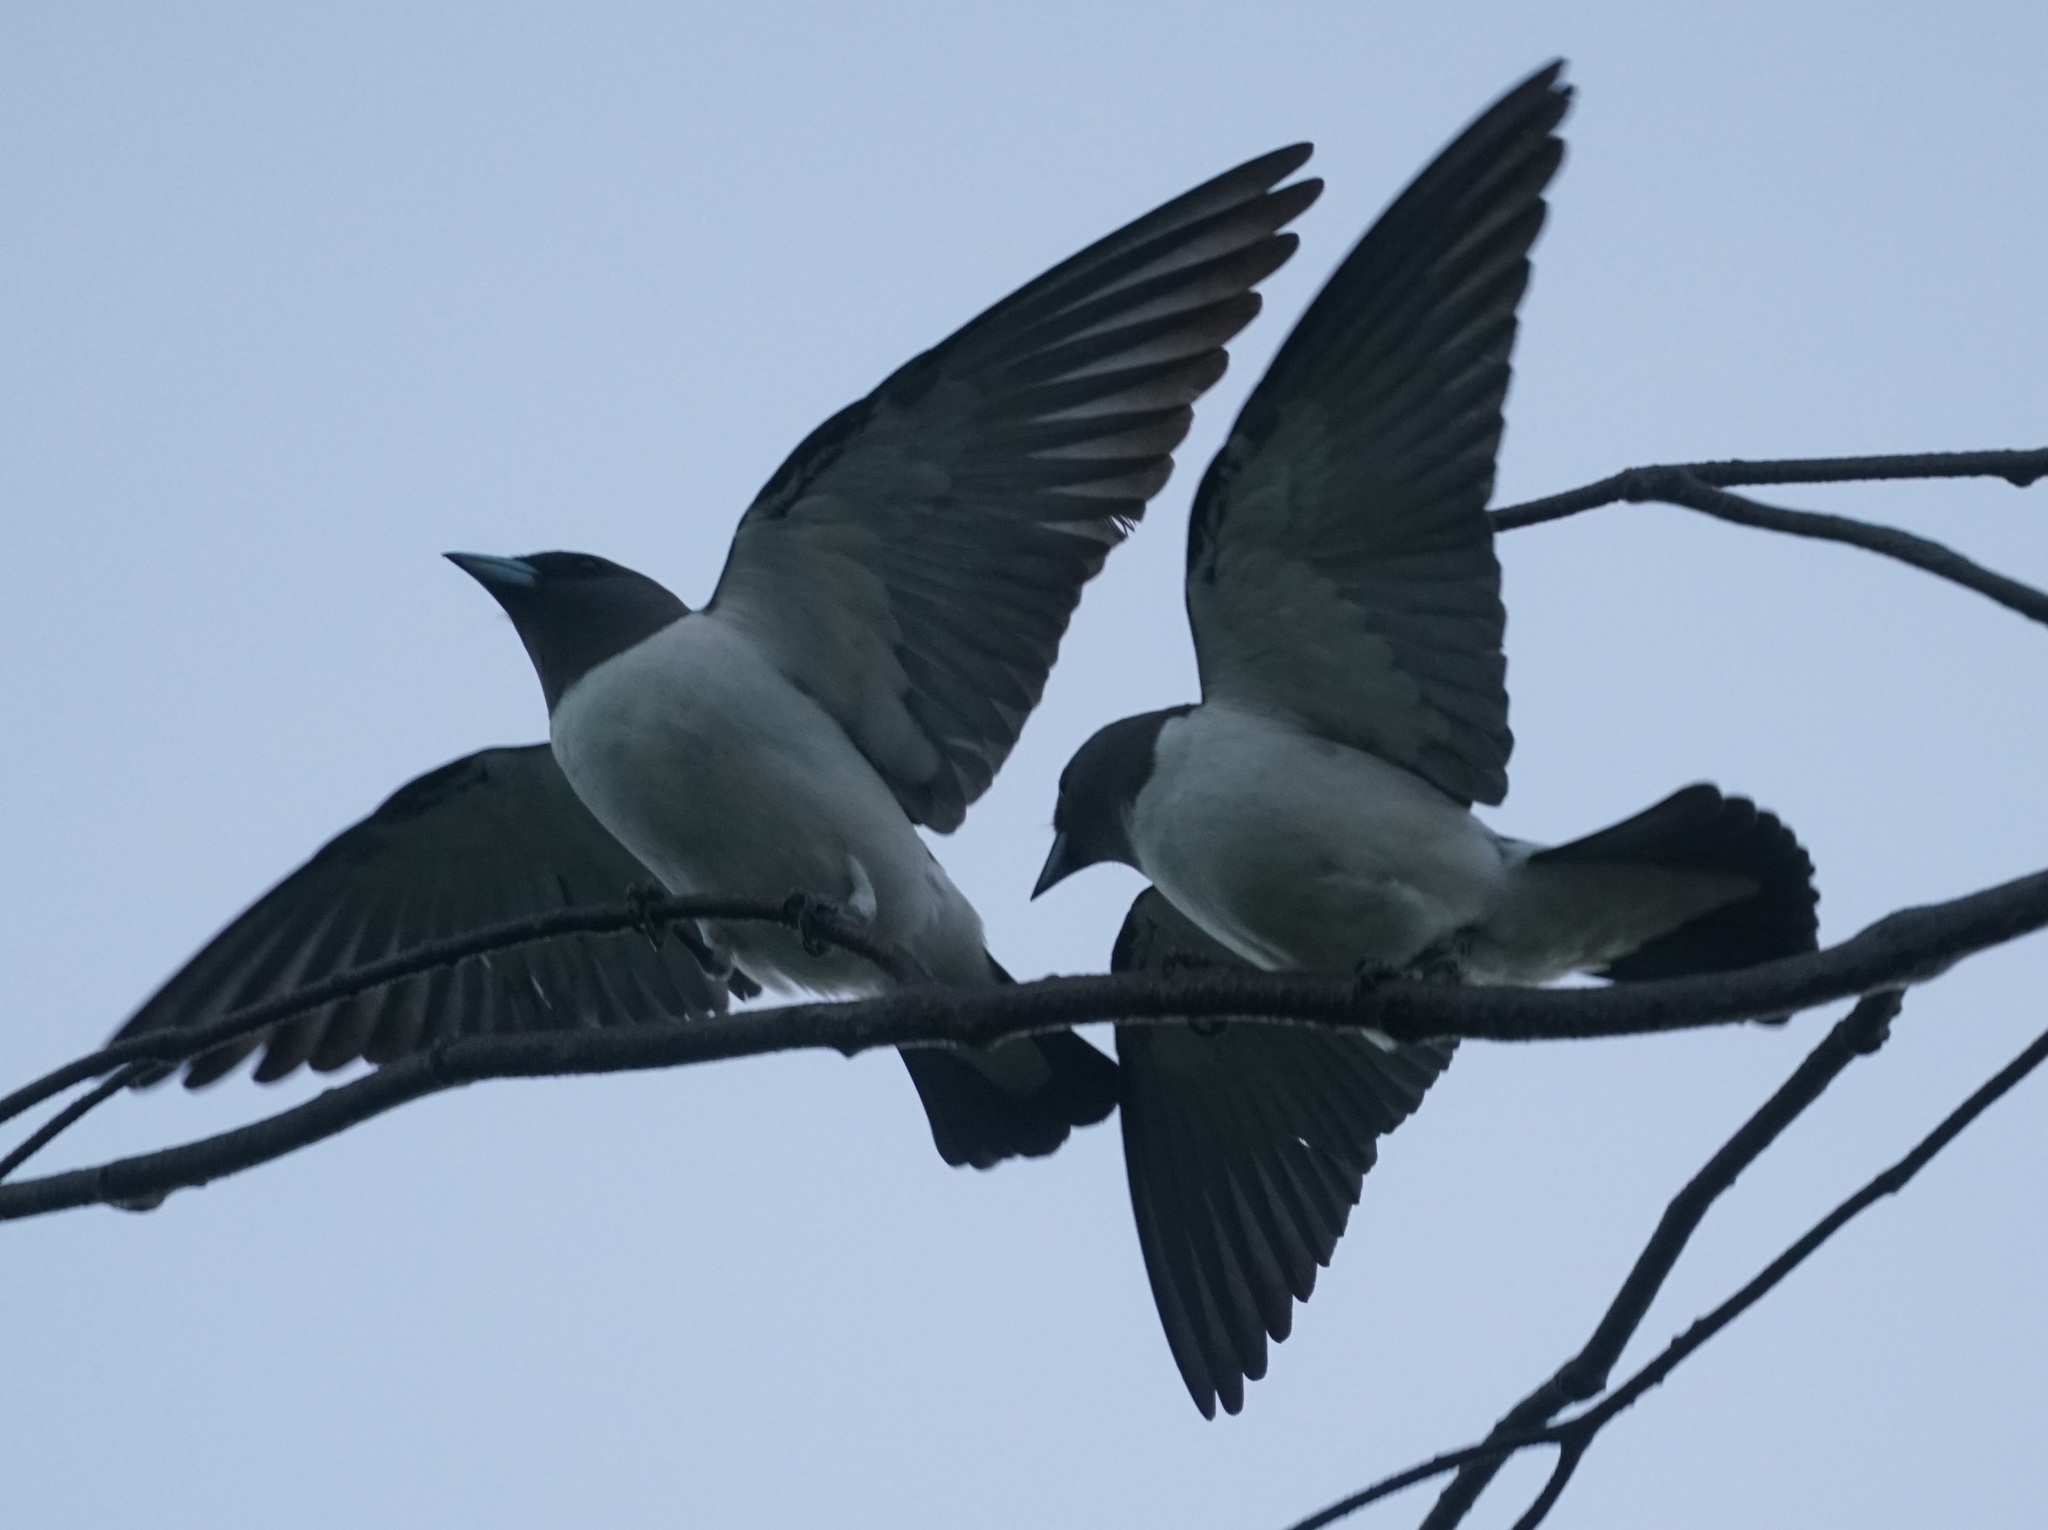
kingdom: Animalia
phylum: Chordata
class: Aves
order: Passeriformes
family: Artamidae
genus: Artamus
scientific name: Artamus leucoryn
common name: White-breasted woodswallow
